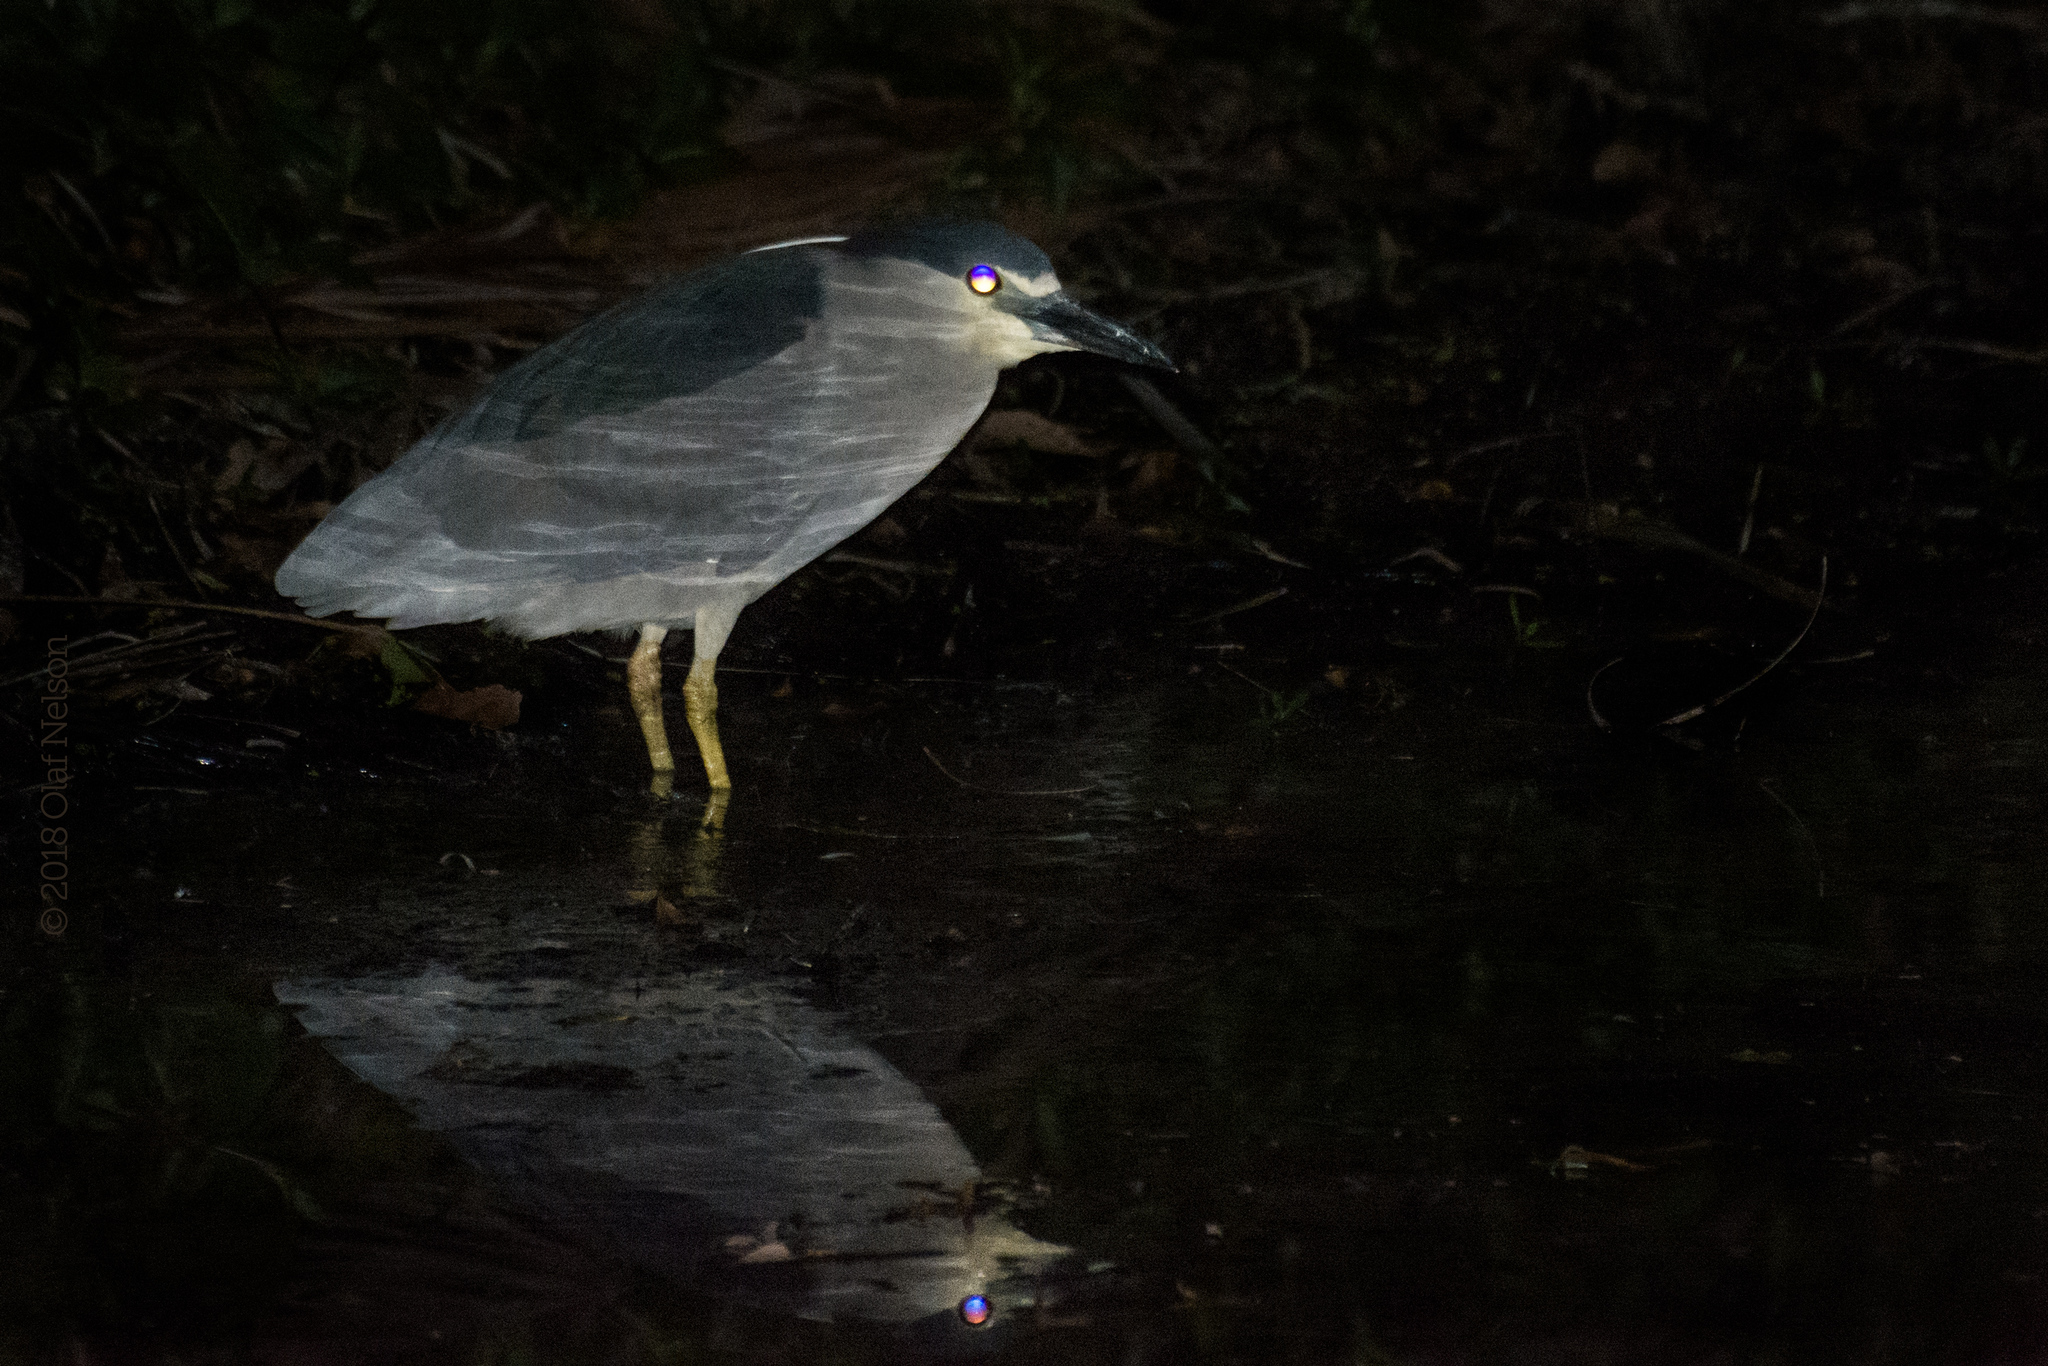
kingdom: Animalia
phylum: Chordata
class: Aves
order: Pelecaniformes
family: Ardeidae
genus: Nycticorax
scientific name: Nycticorax nycticorax
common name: Black-crowned night heron
